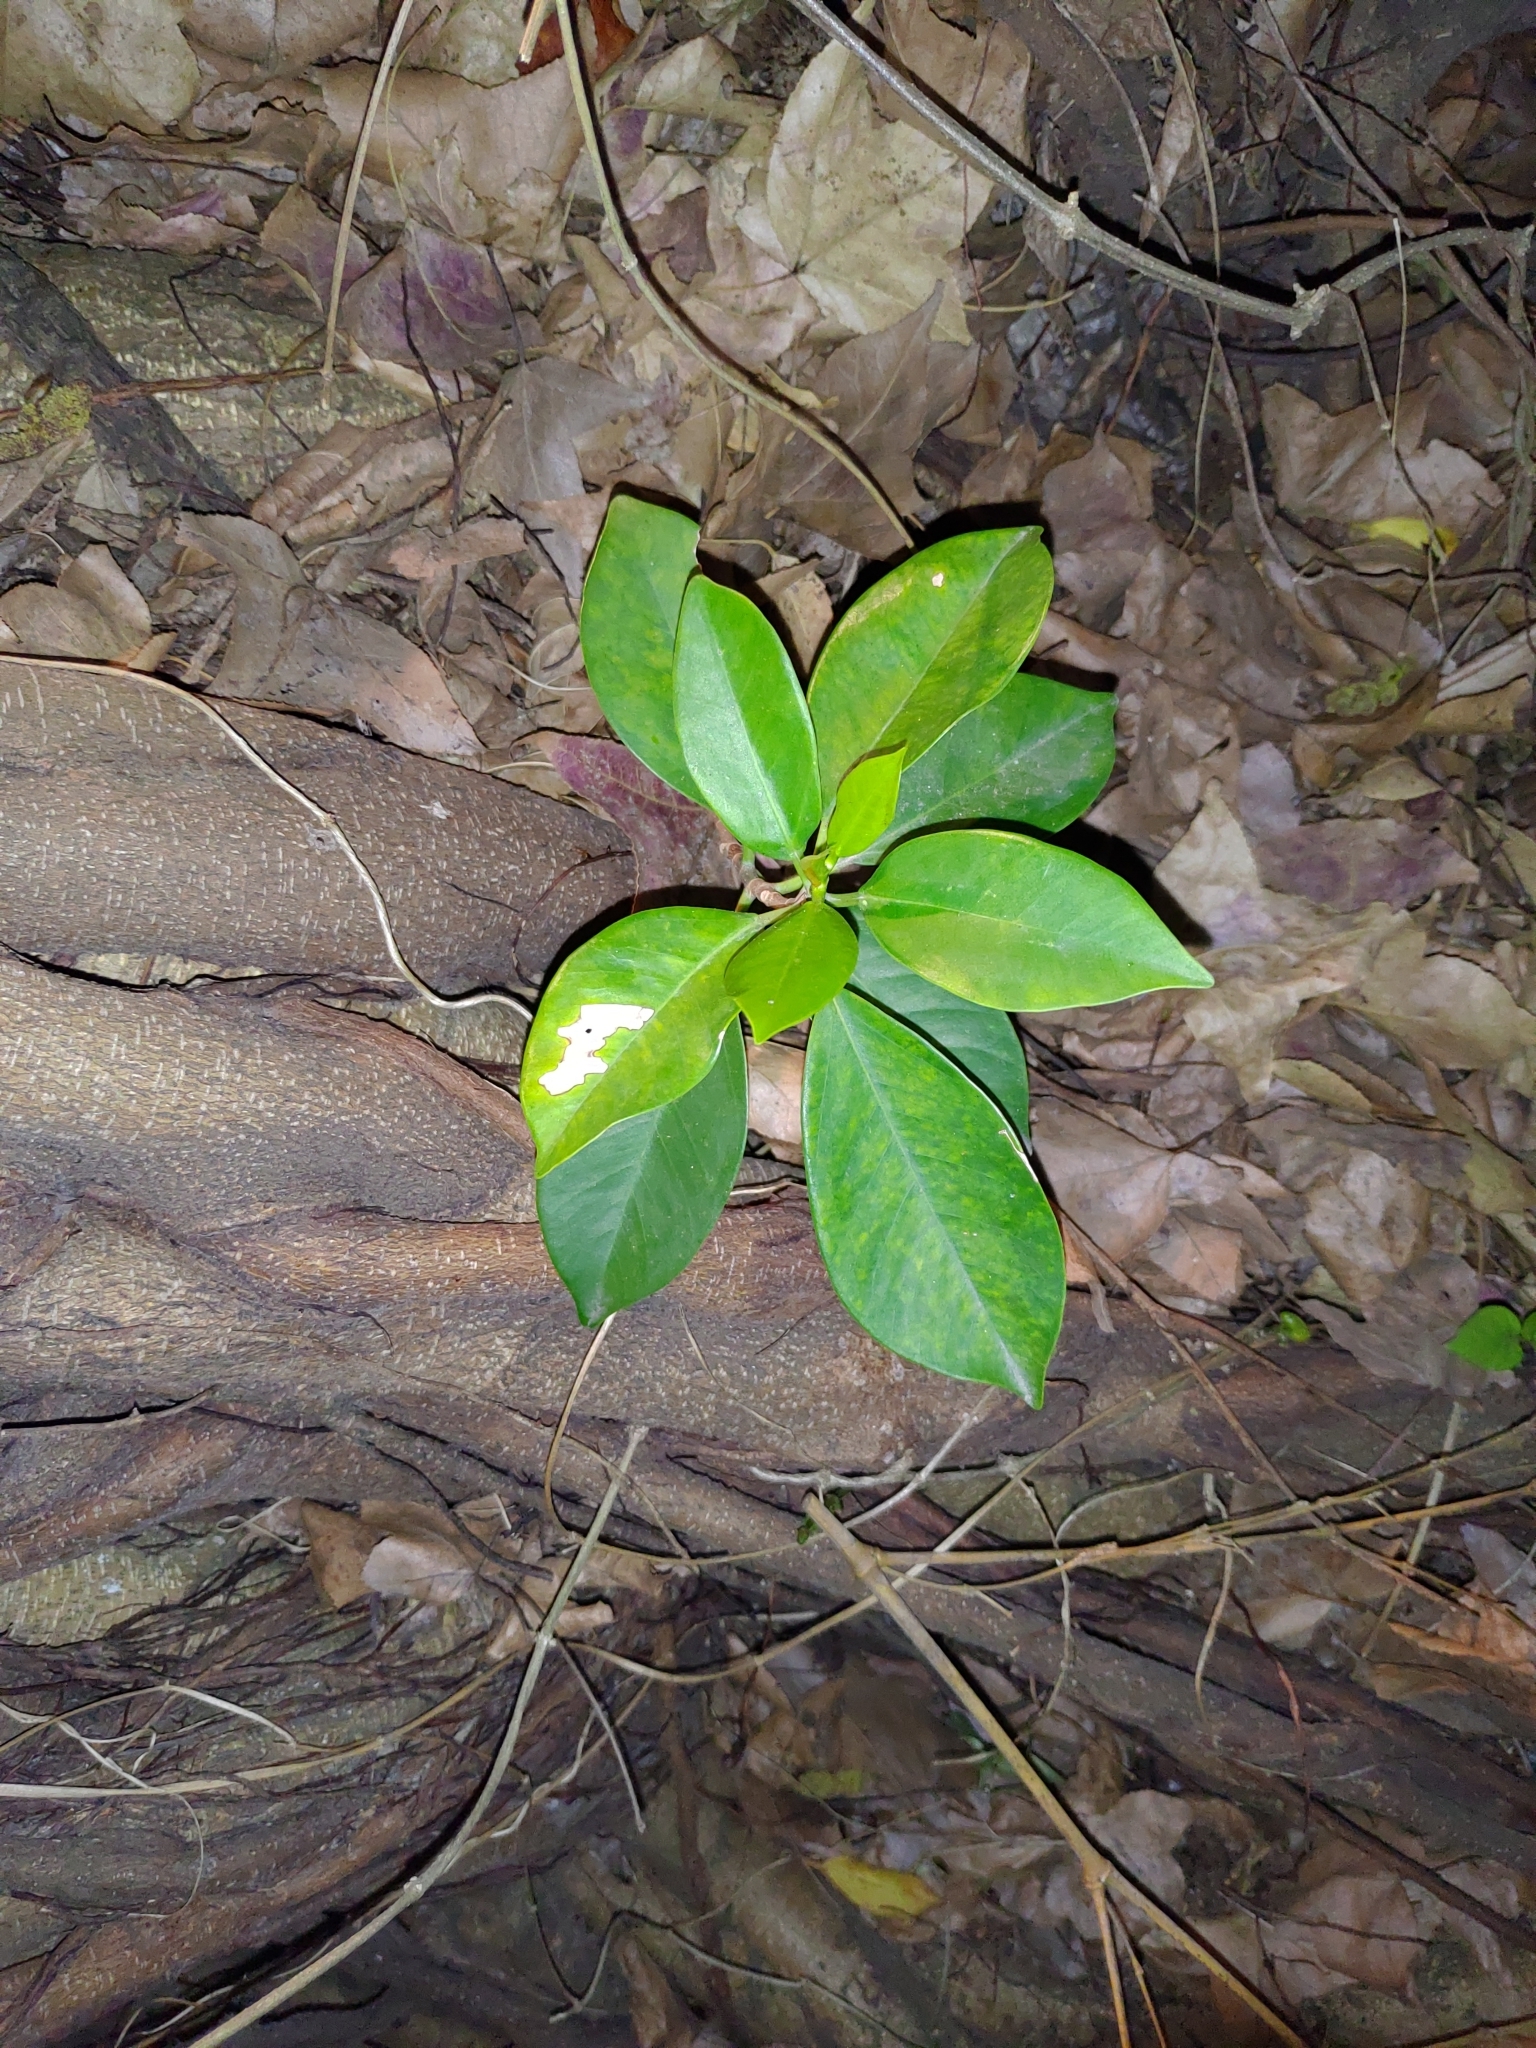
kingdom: Plantae
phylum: Tracheophyta
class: Magnoliopsida
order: Rosales
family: Moraceae
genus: Ficus
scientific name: Ficus microcarpa
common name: Chinese banyan
